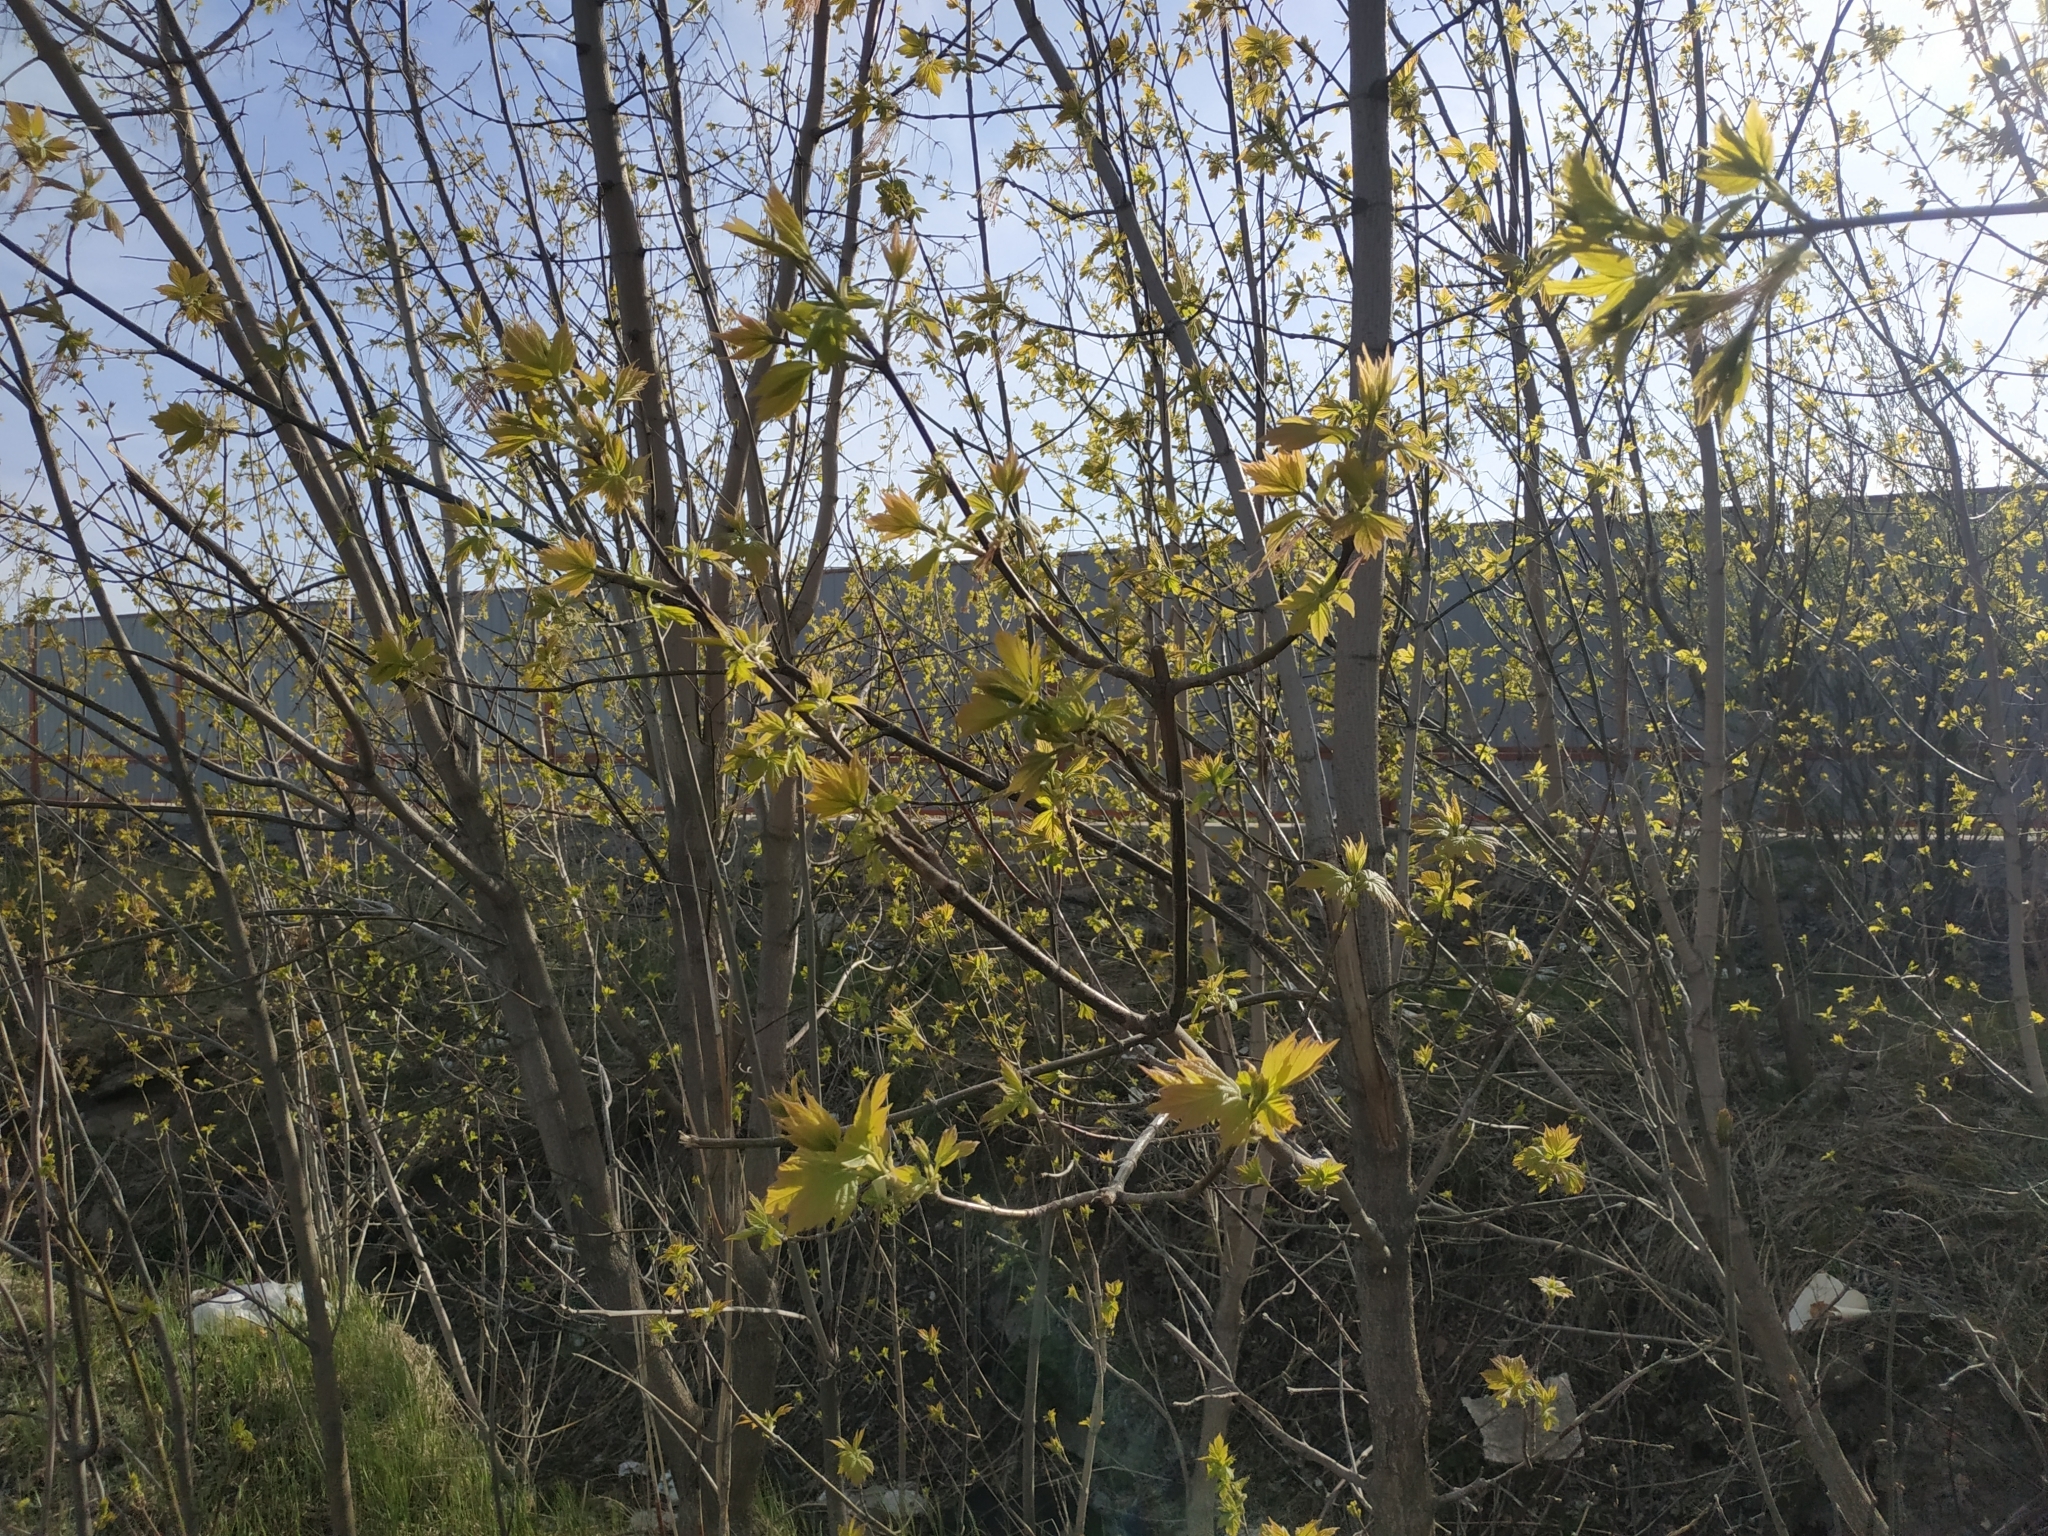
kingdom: Plantae
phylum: Tracheophyta
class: Magnoliopsida
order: Sapindales
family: Sapindaceae
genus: Acer
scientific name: Acer negundo
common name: Ashleaf maple
